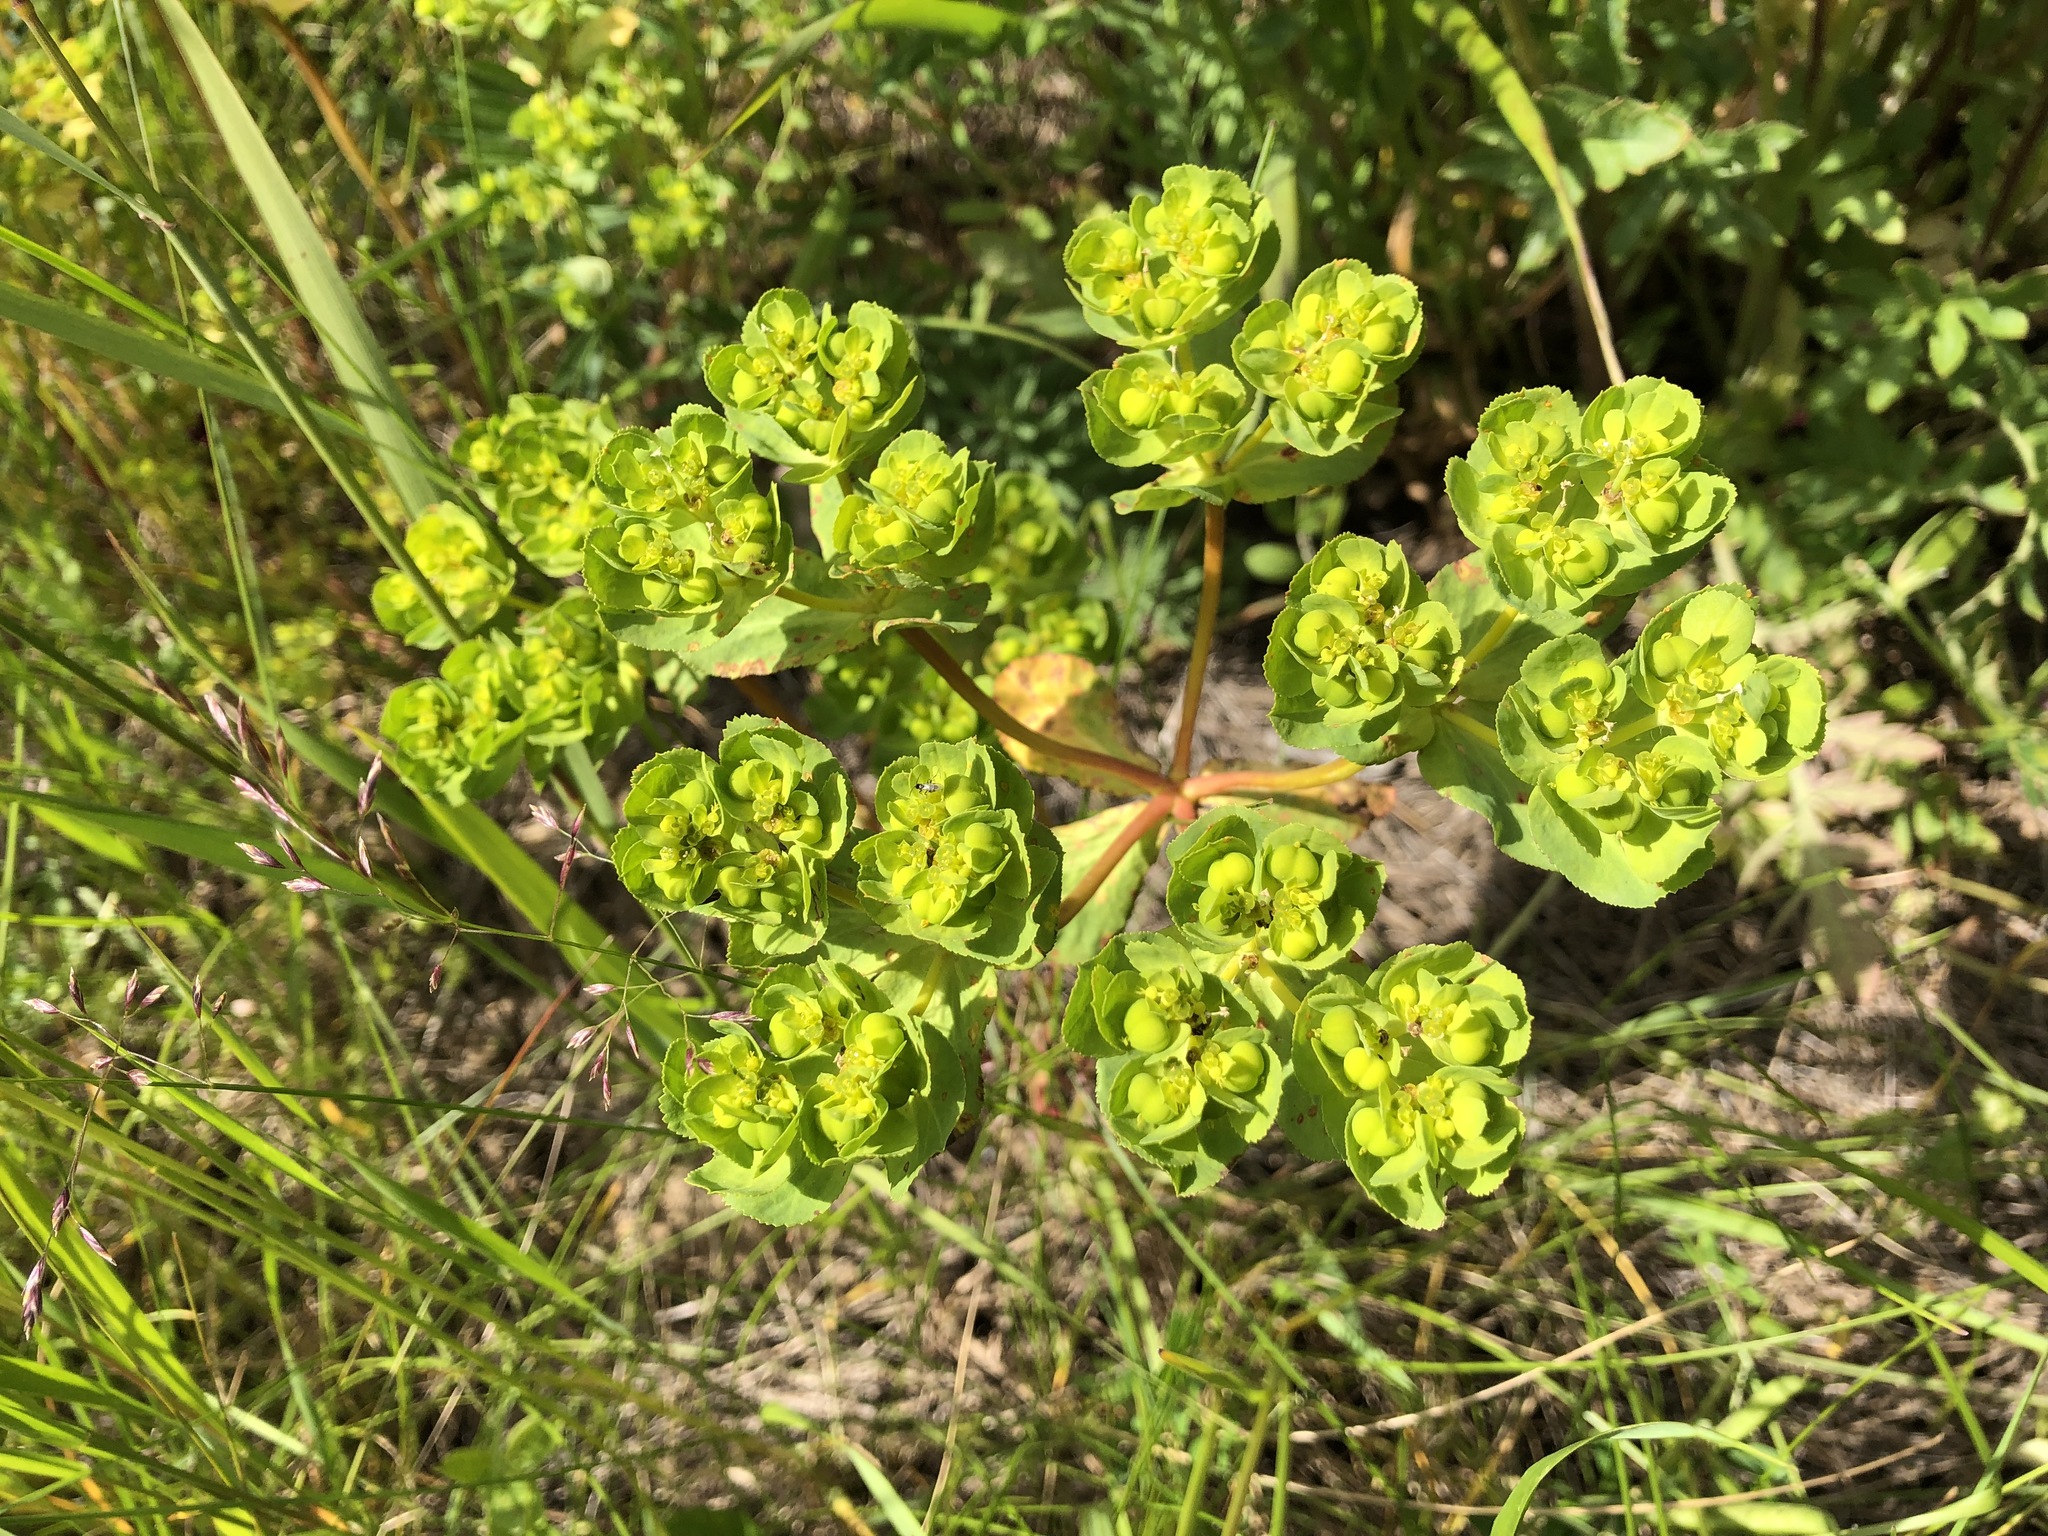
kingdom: Plantae
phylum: Tracheophyta
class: Magnoliopsida
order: Malpighiales
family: Euphorbiaceae
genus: Euphorbia
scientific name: Euphorbia helioscopia
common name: Sun spurge
